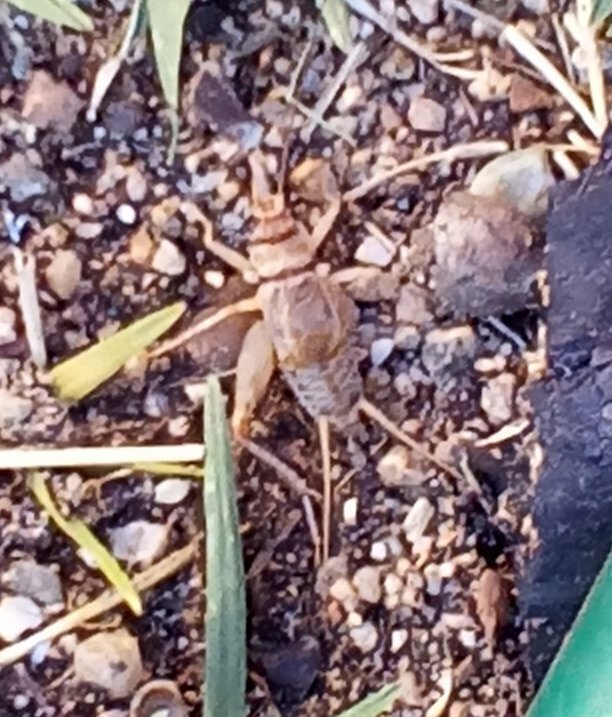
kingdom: Animalia
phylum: Arthropoda
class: Insecta
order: Orthoptera
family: Gryllidae
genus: Gryllodes
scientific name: Gryllodes sigillatus
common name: Tropical house cricket
